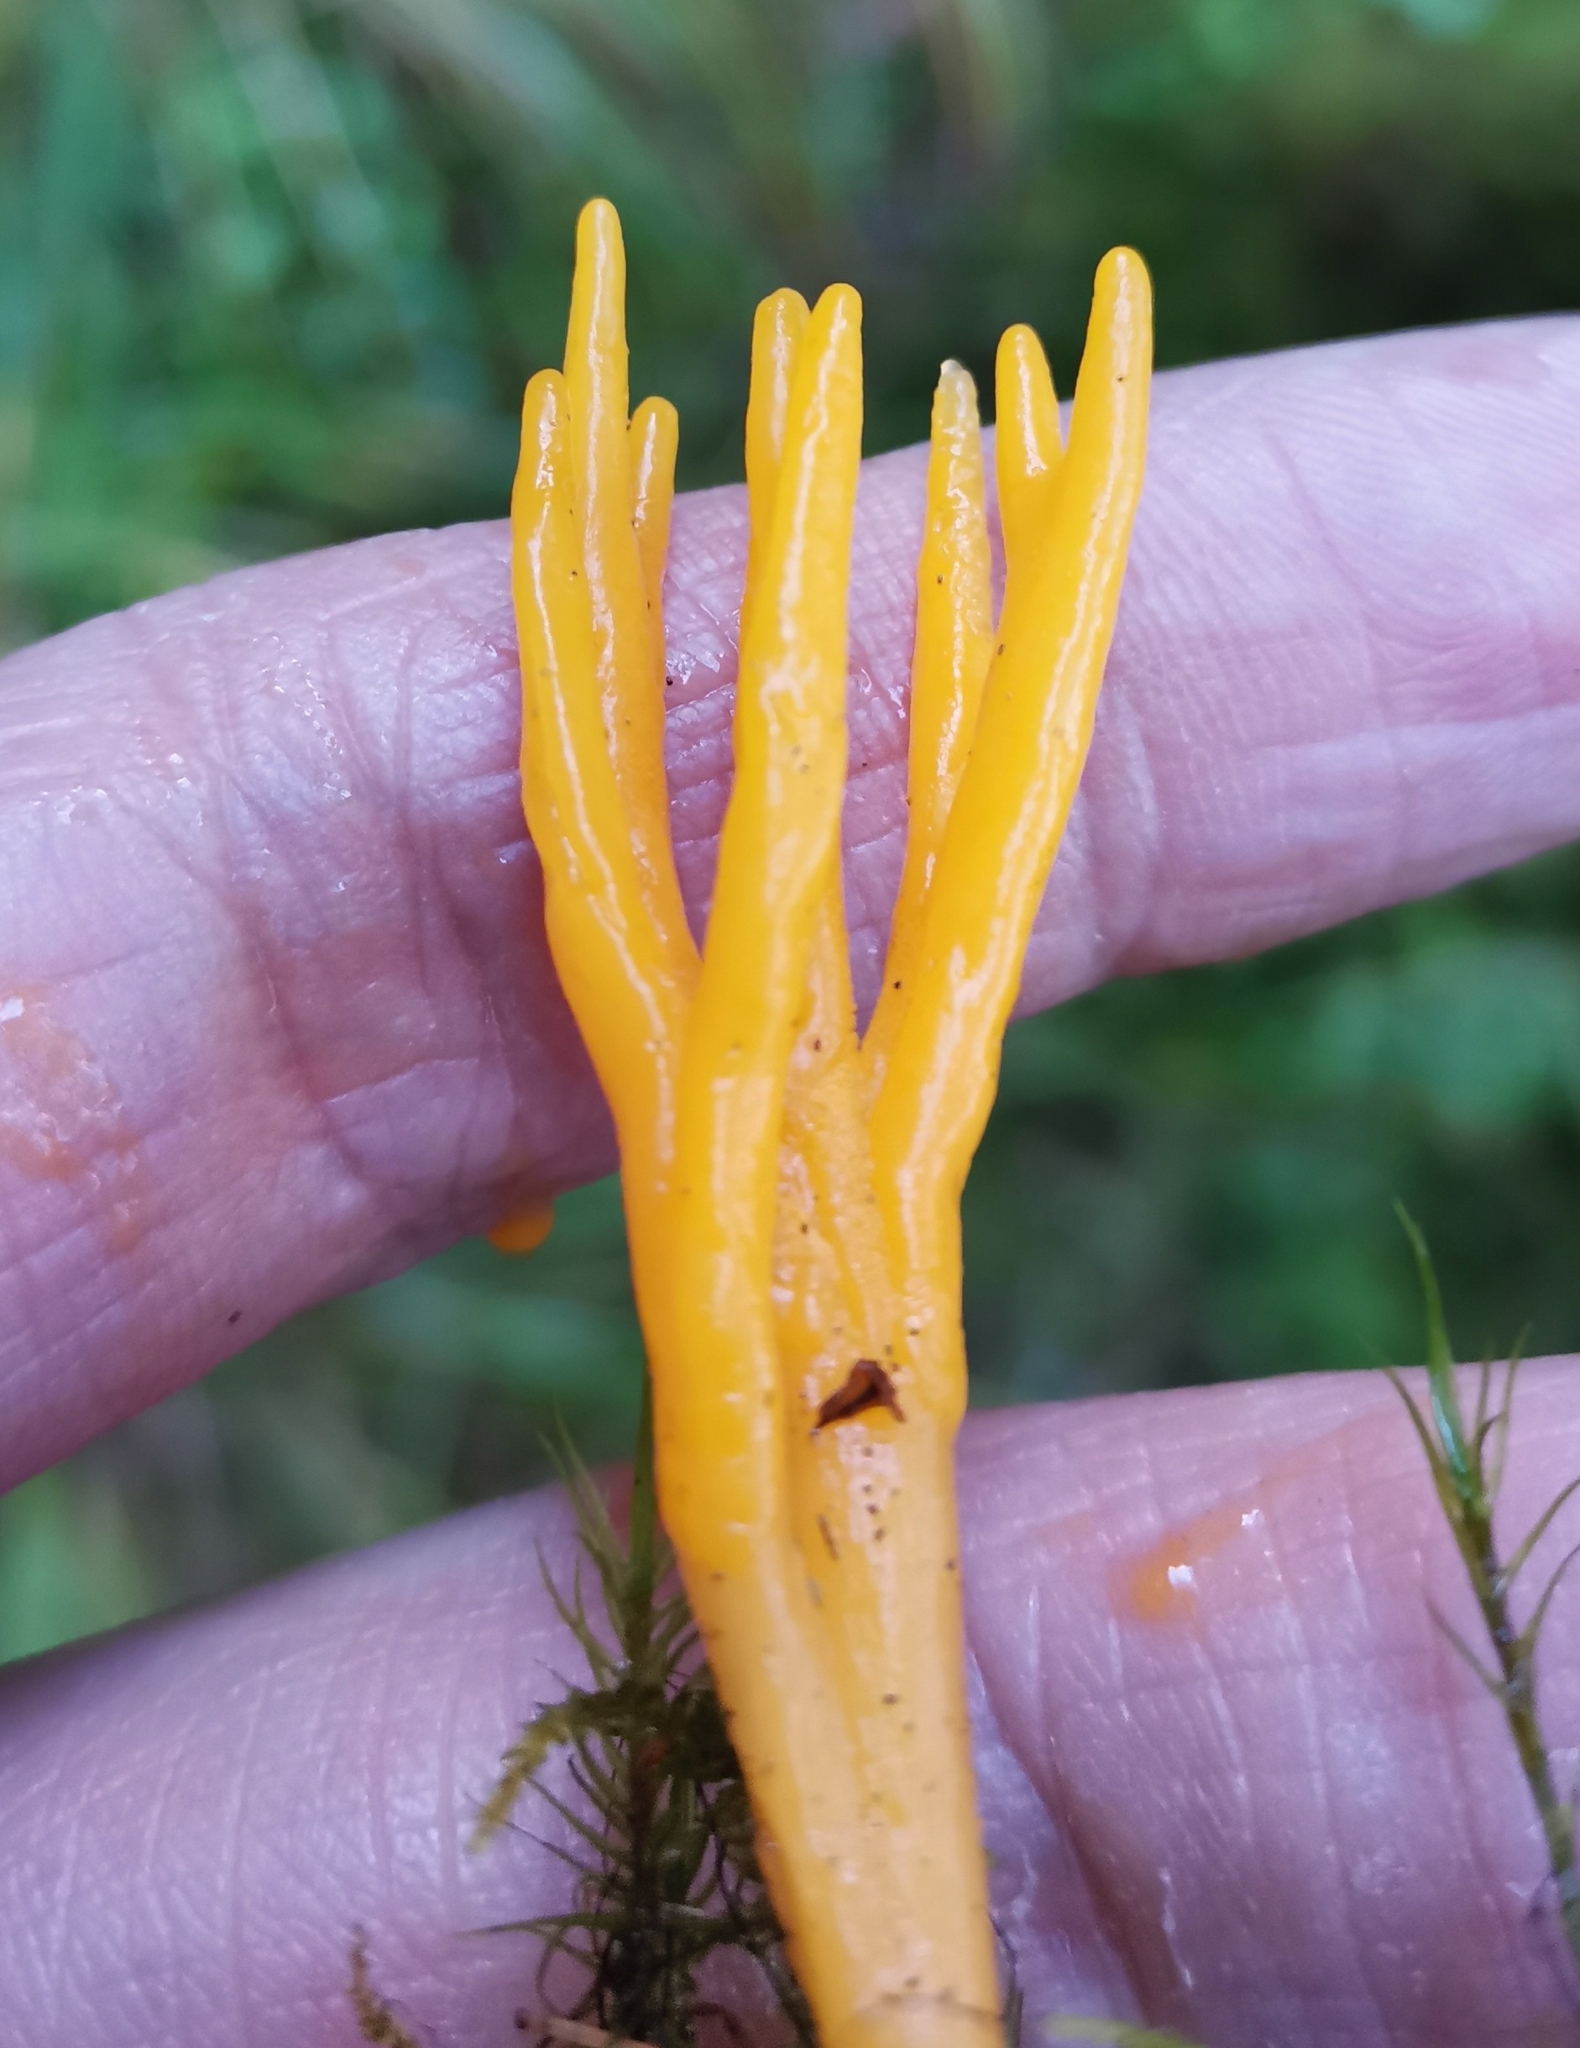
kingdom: Fungi
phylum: Basidiomycota
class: Dacrymycetes
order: Dacrymycetales
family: Dacrymycetaceae
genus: Calocera
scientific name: Calocera viscosa
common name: Yellow stagshorn
